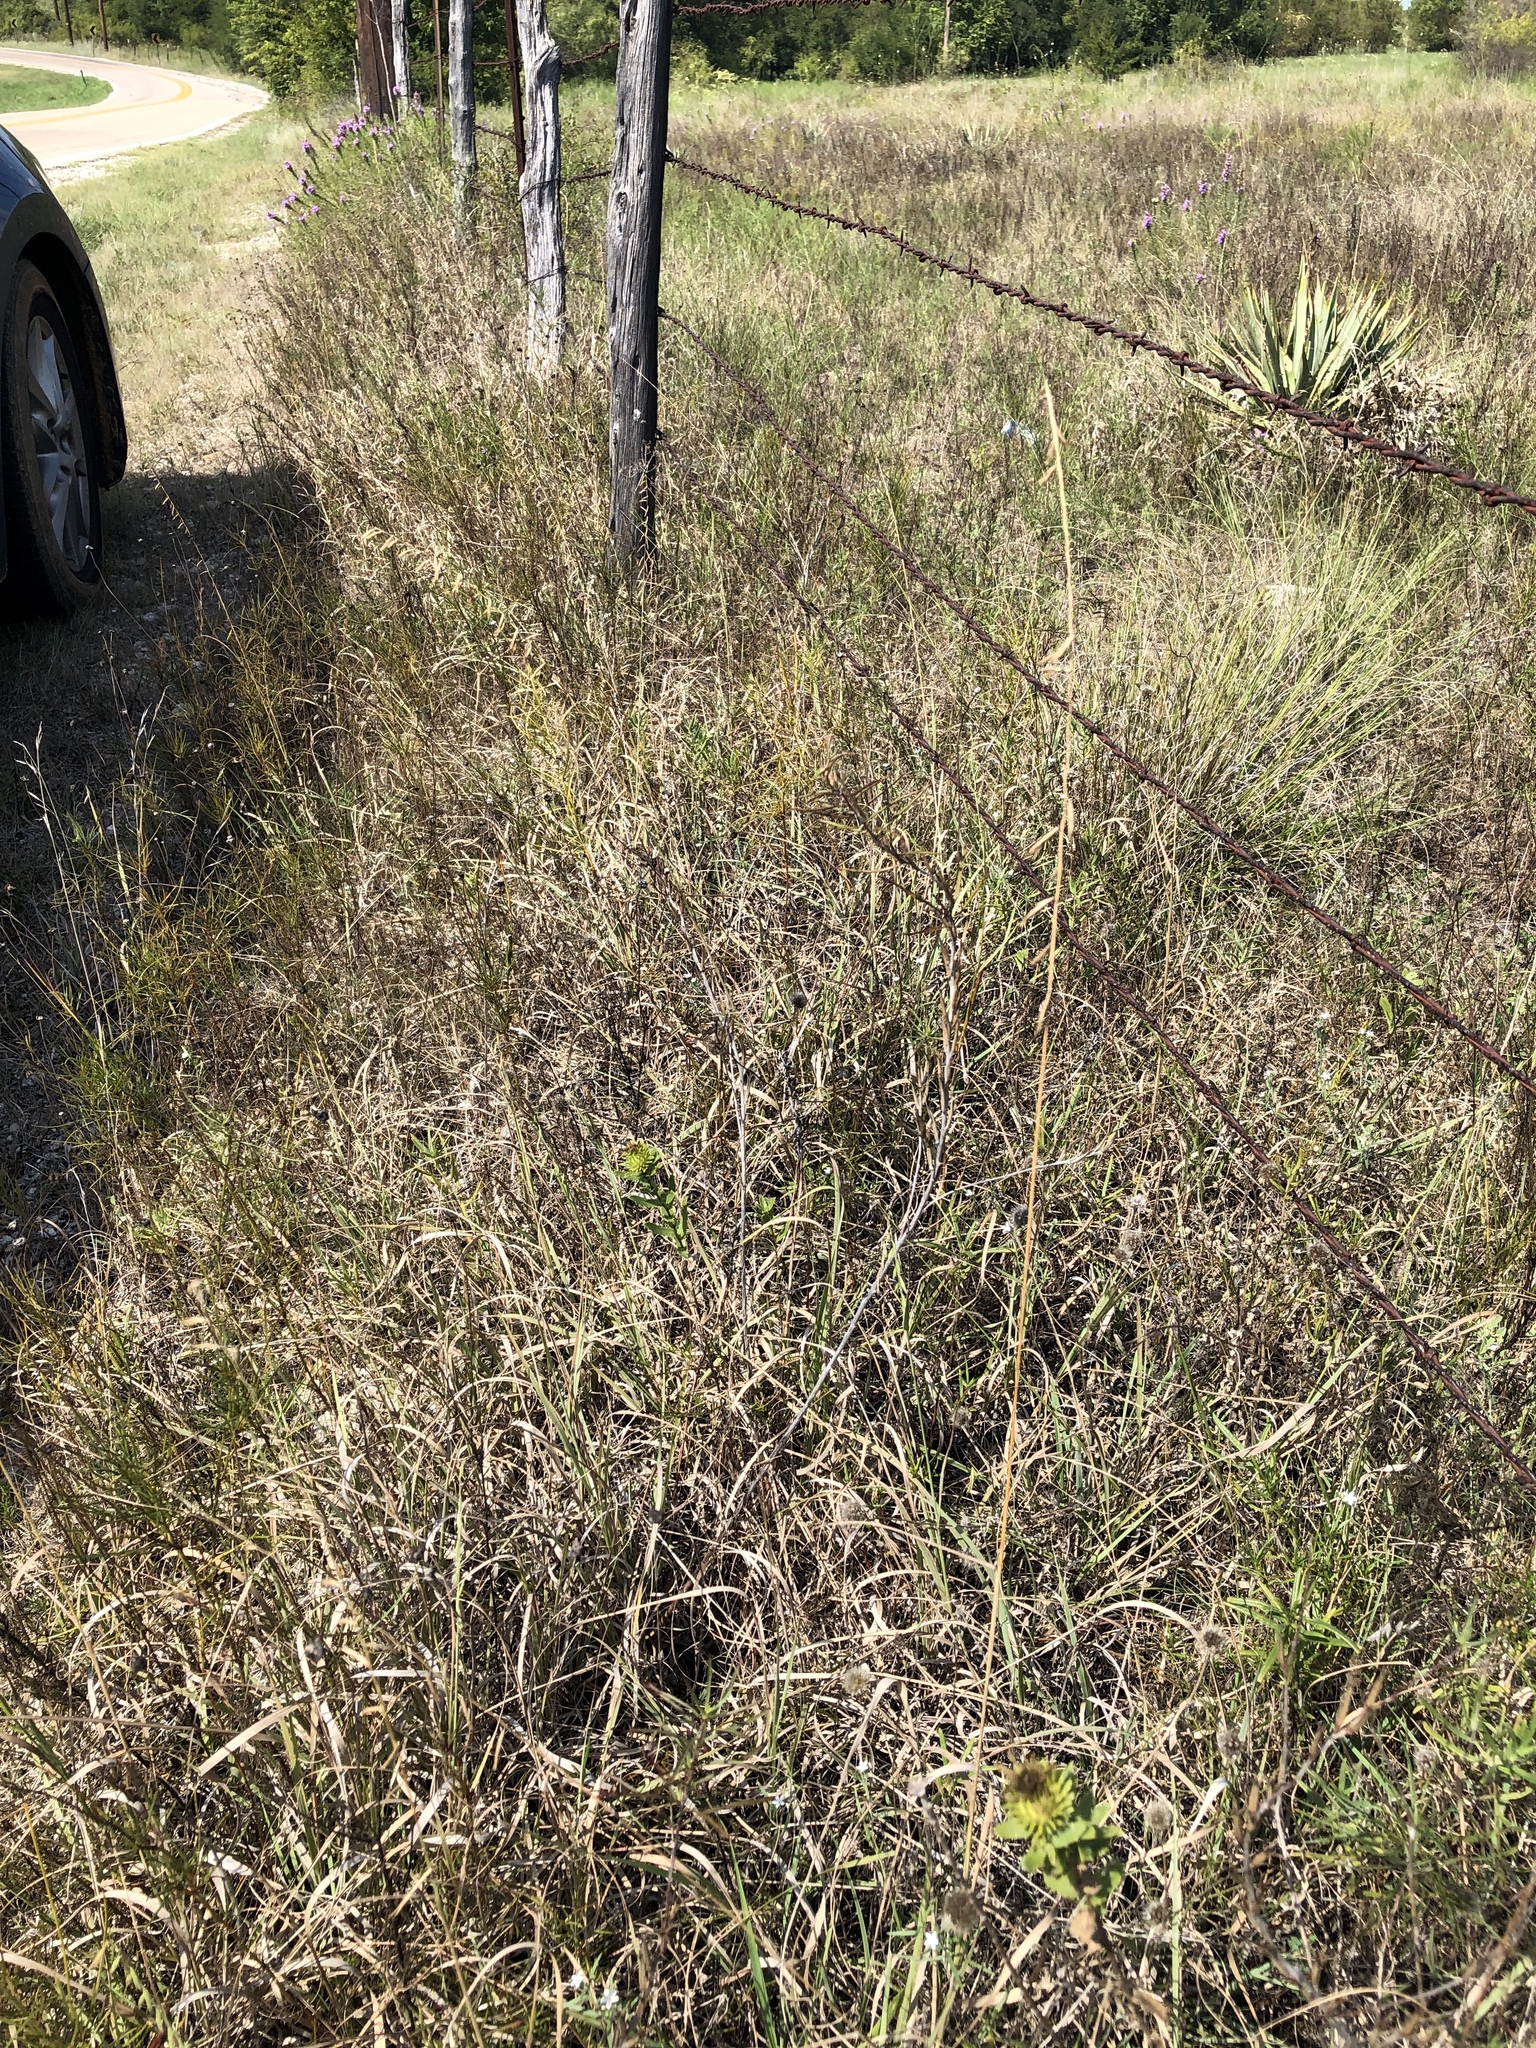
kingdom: Plantae
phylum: Tracheophyta
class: Liliopsida
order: Poales
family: Poaceae
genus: Bouteloua
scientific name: Bouteloua curtipendula
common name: Side-oats grama
